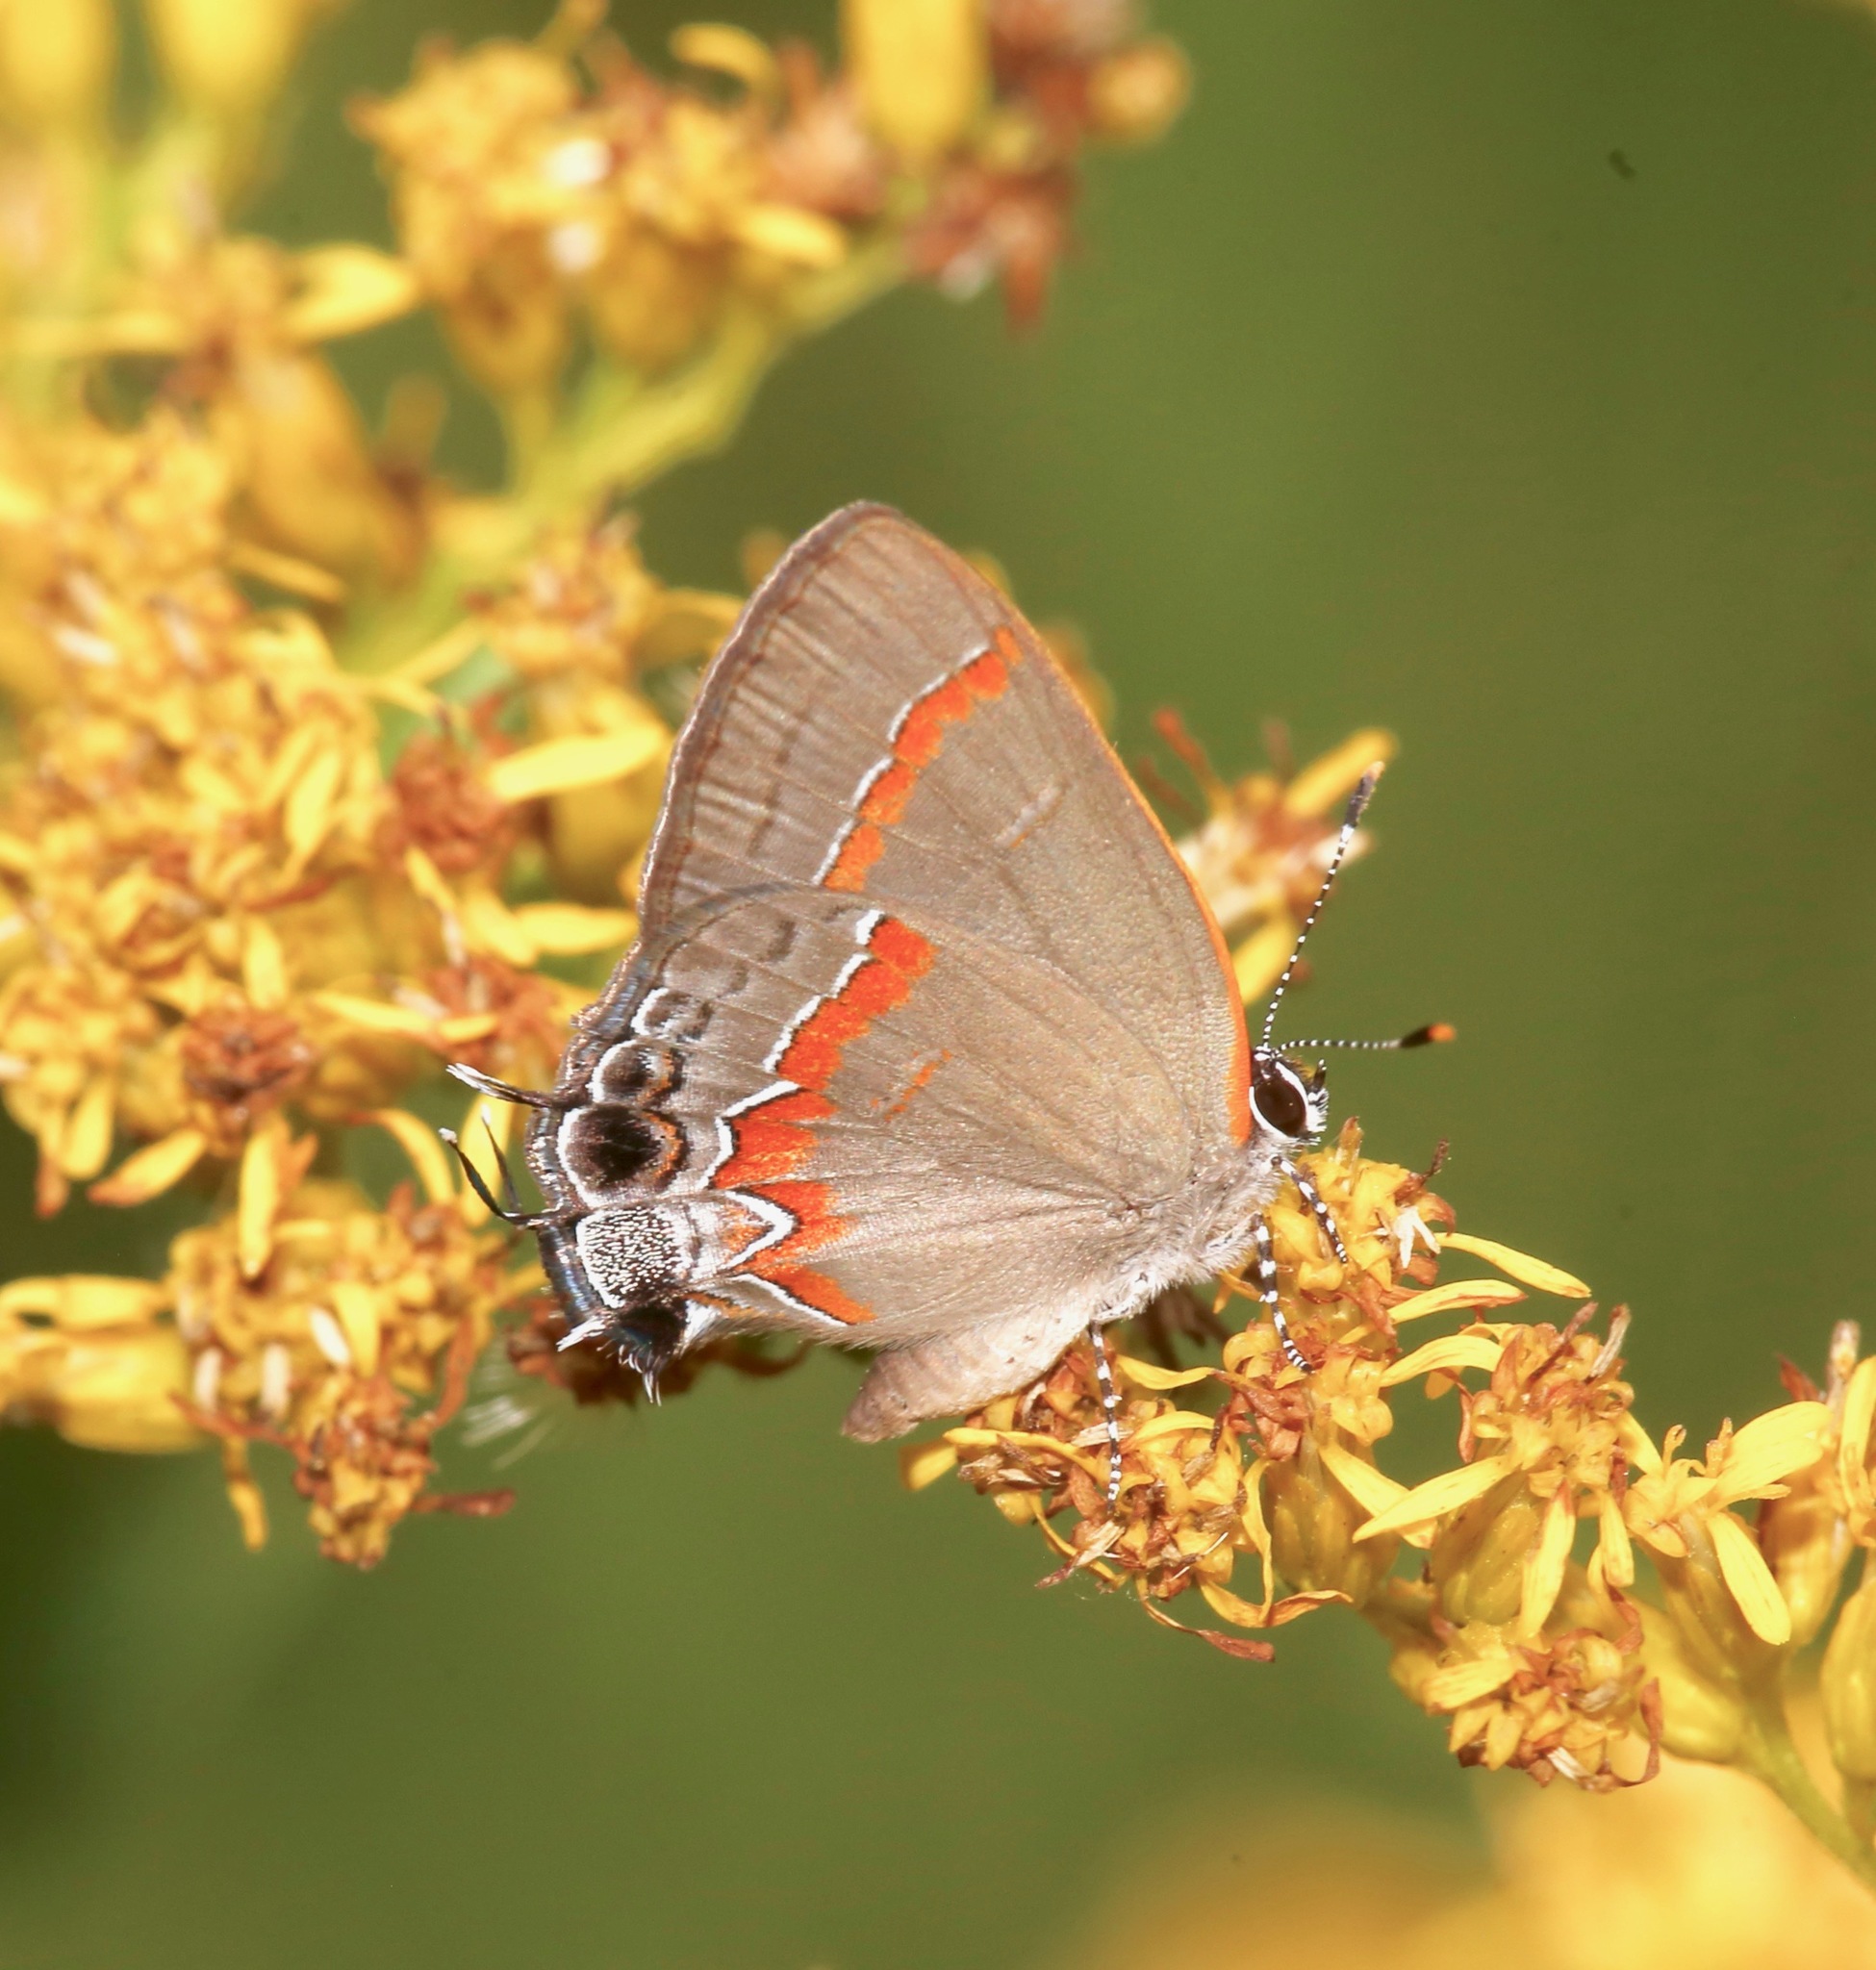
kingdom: Animalia
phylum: Arthropoda
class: Insecta
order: Lepidoptera
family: Lycaenidae
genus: Calycopis
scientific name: Calycopis cecrops
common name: Red-banded hairstreak
